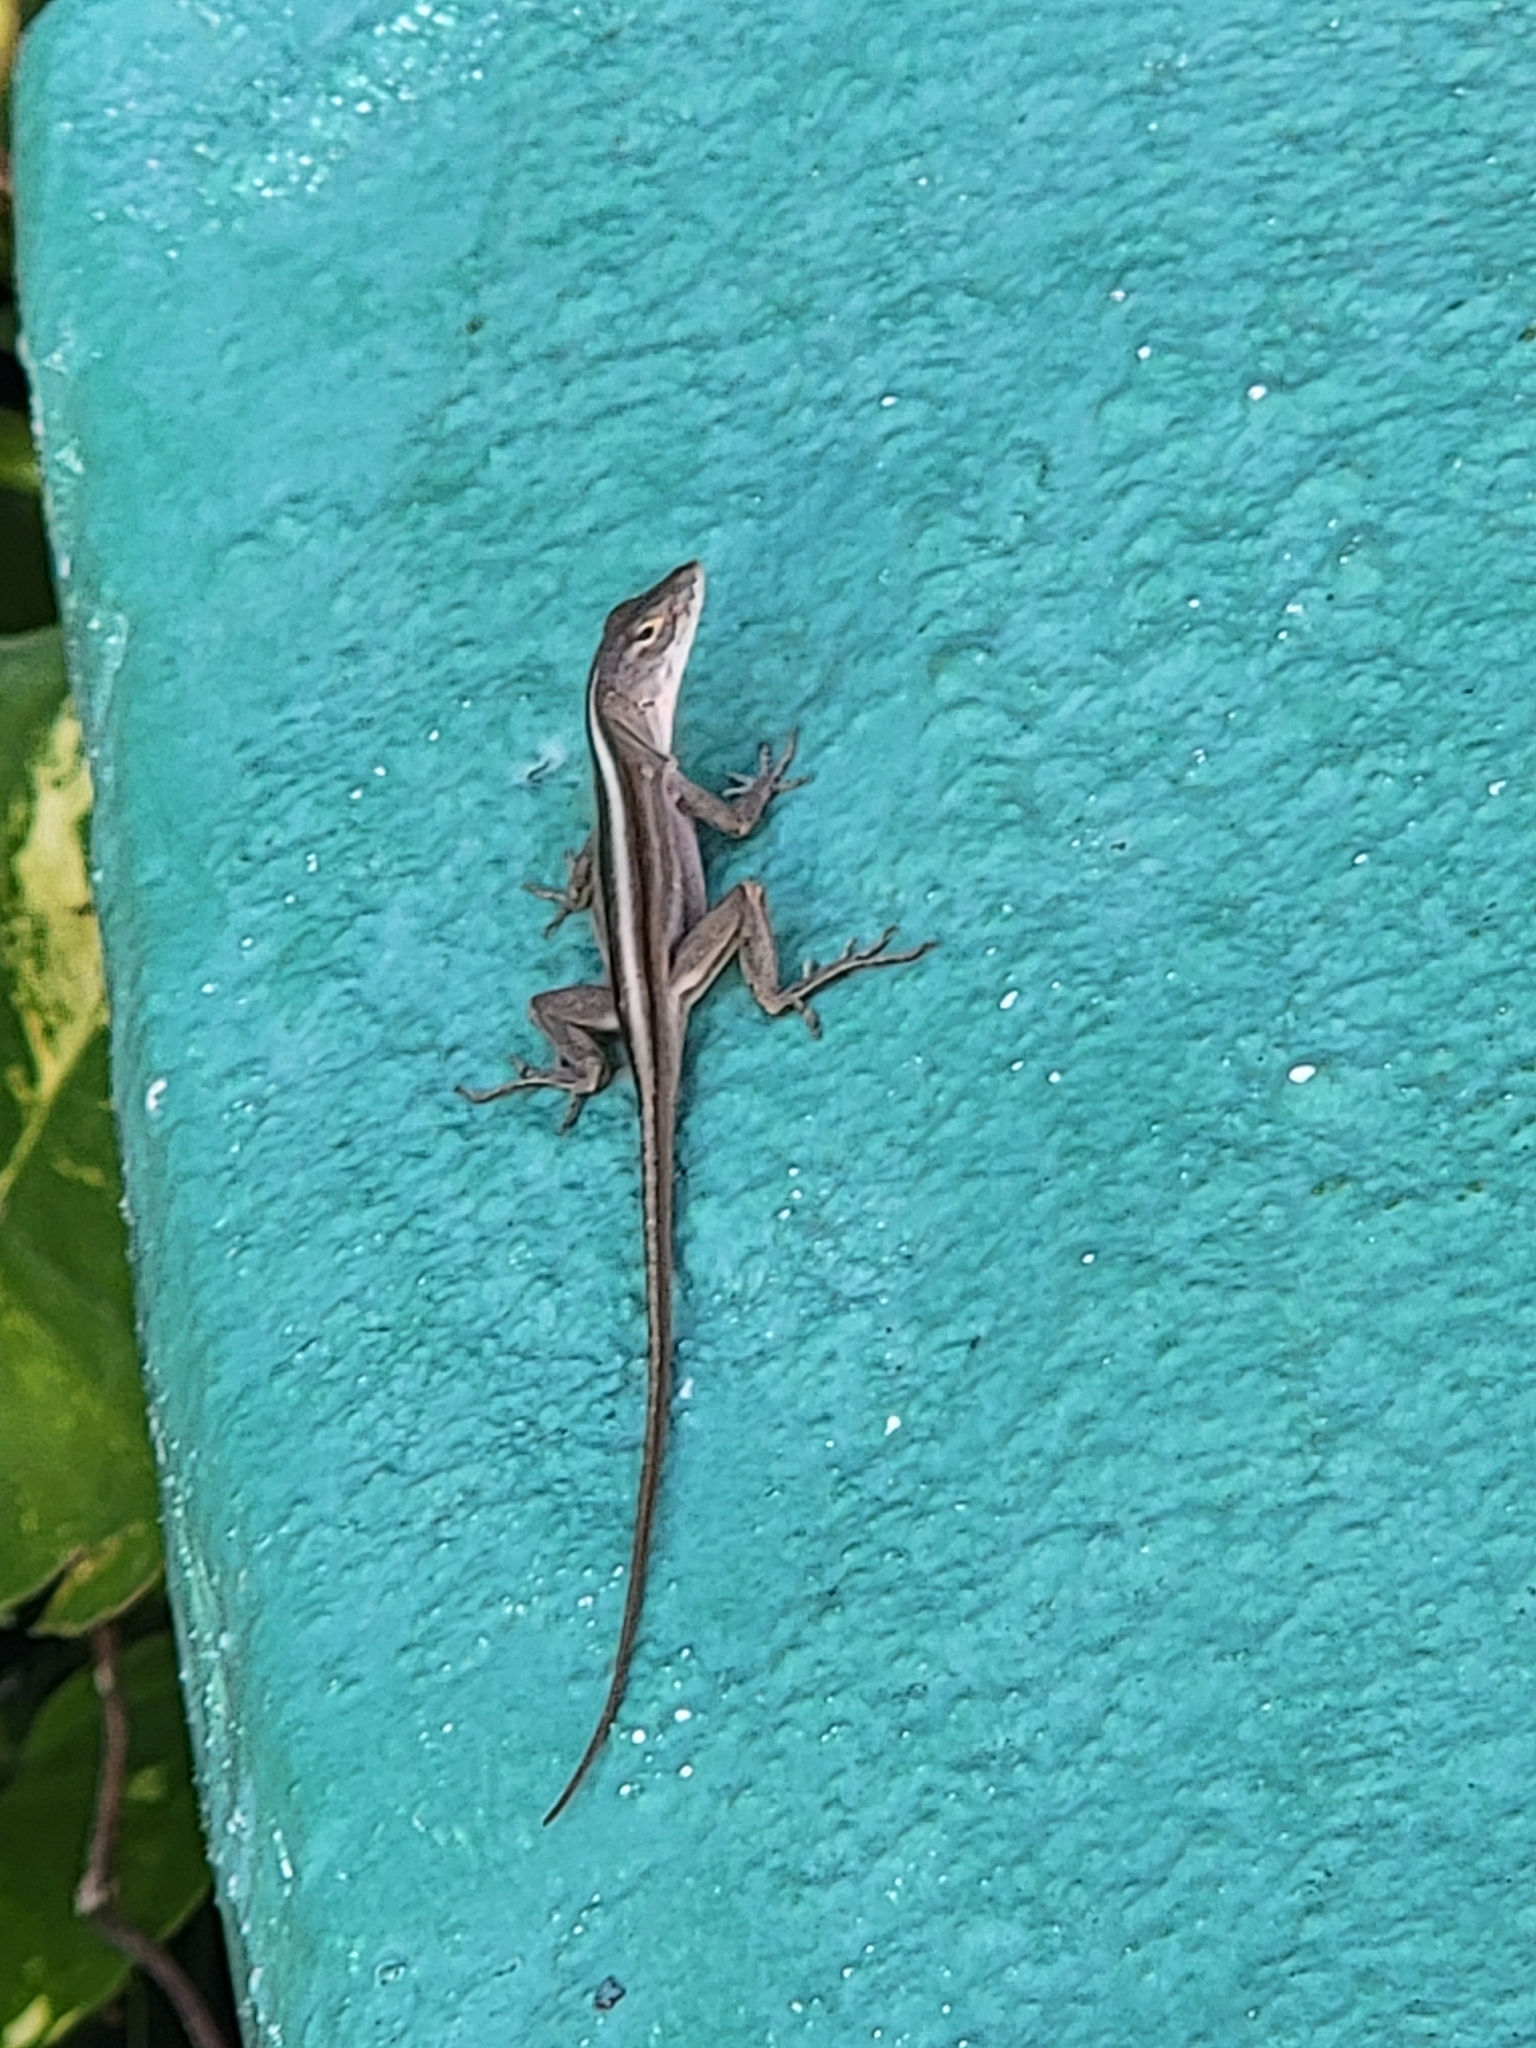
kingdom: Animalia
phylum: Chordata
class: Squamata
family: Dactyloidae
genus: Anolis
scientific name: Anolis sagrei
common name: Brown anole
